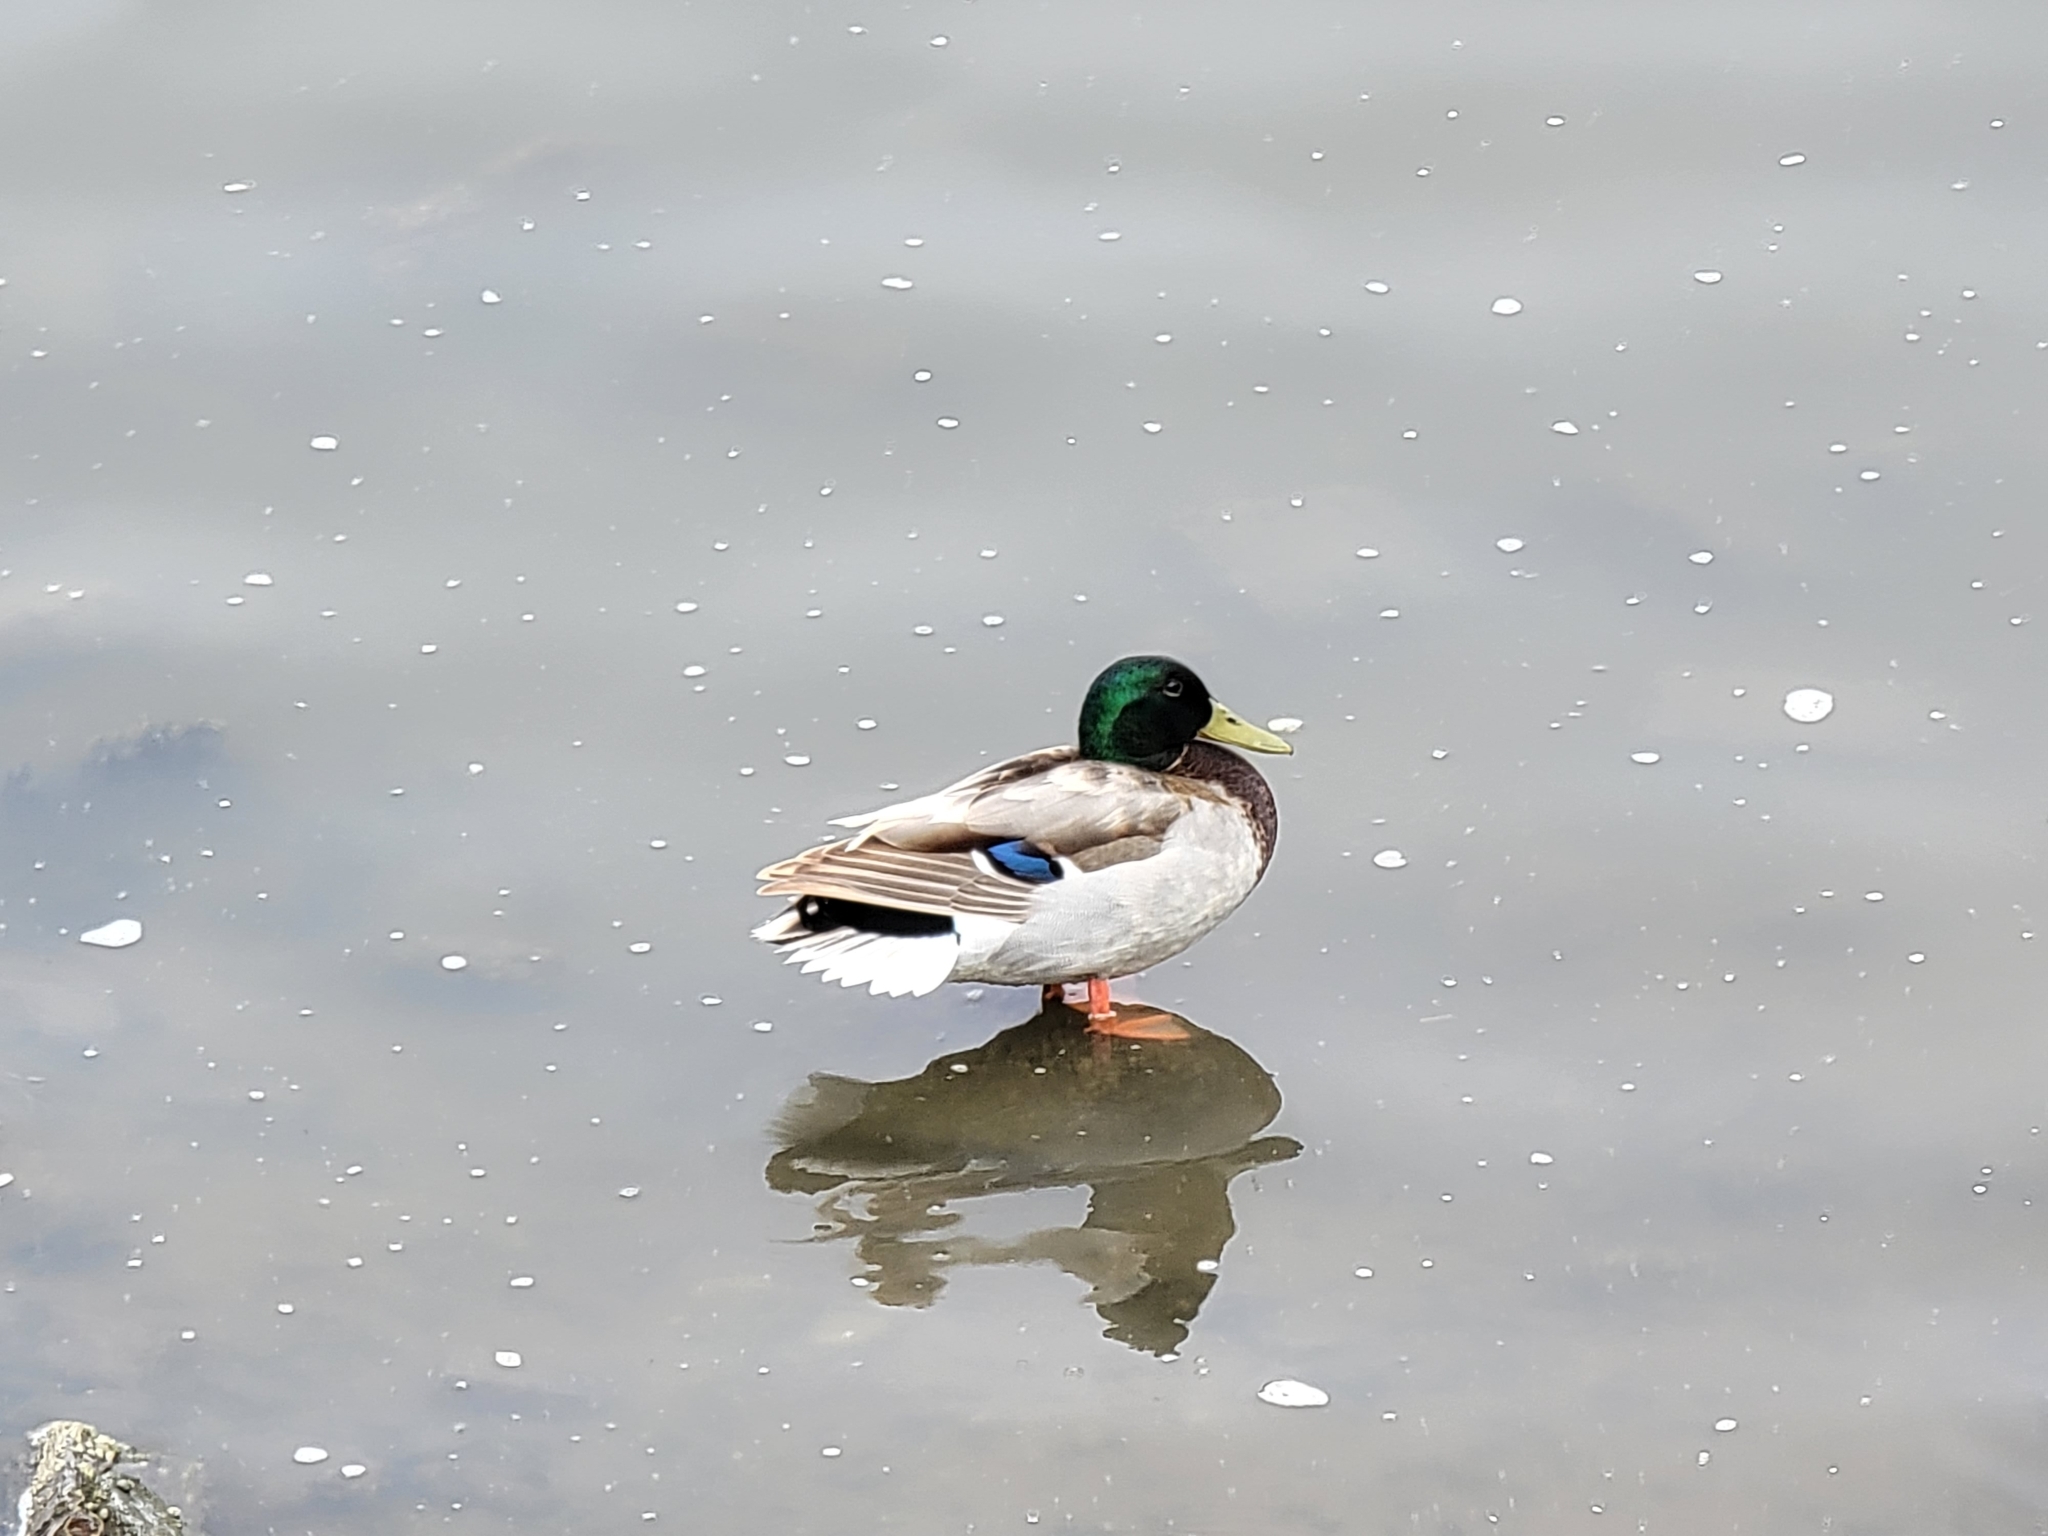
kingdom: Animalia
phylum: Chordata
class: Aves
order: Anseriformes
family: Anatidae
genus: Anas
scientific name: Anas platyrhynchos
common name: Mallard
